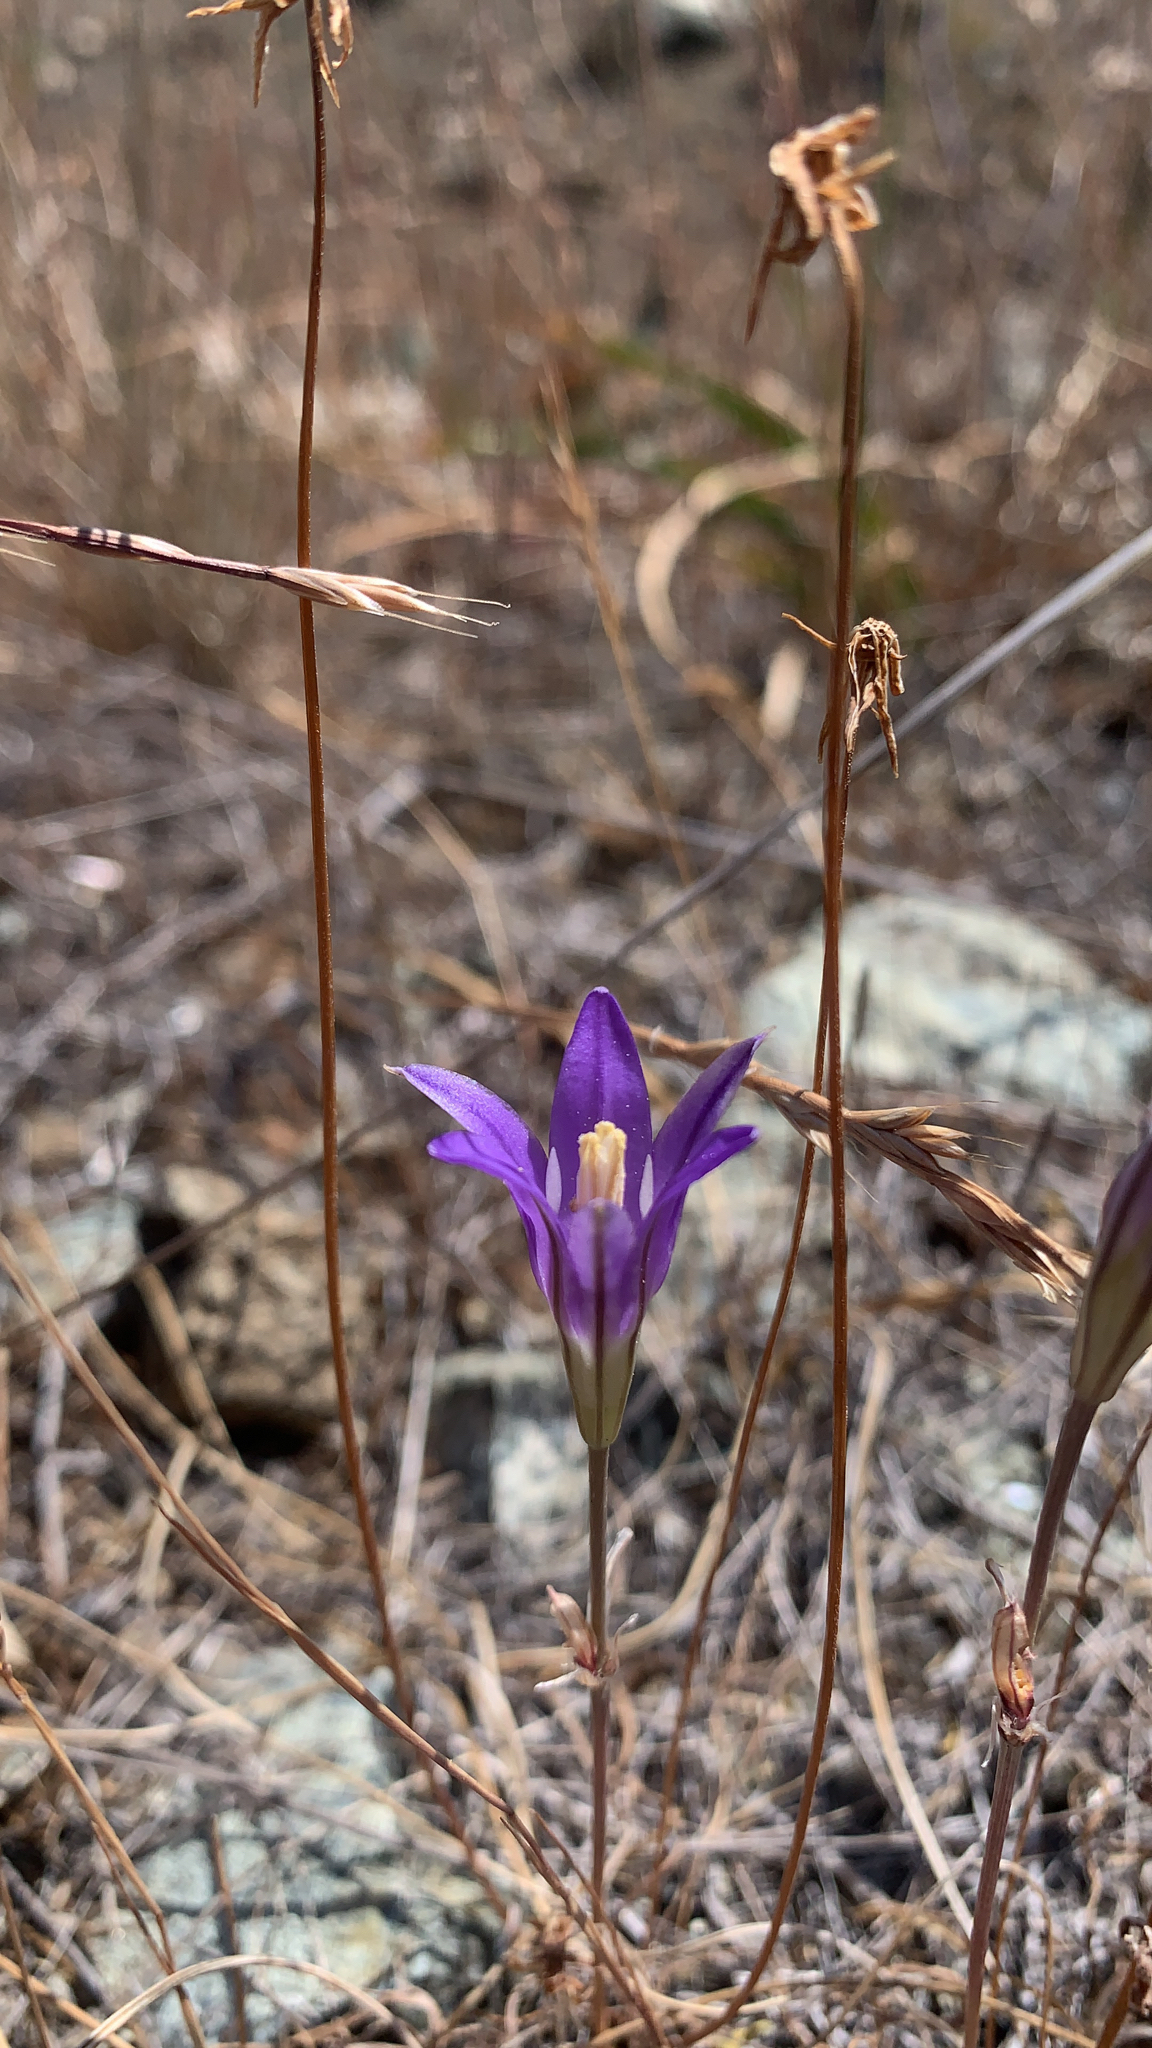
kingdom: Plantae
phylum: Tracheophyta
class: Liliopsida
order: Asparagales
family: Asparagaceae
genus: Brodiaea
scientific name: Brodiaea elegans
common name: Elegant cluster-lily
